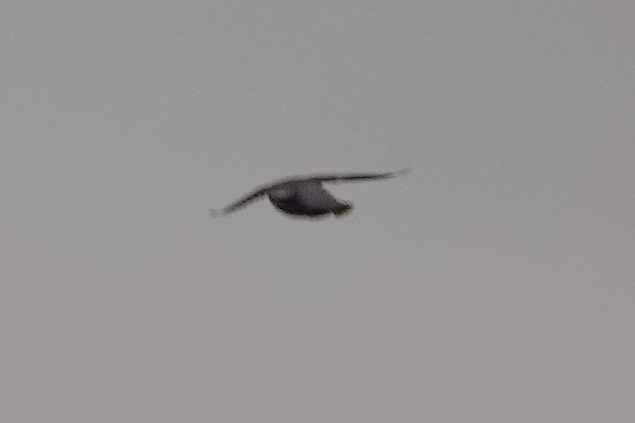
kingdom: Animalia
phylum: Chordata
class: Aves
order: Passeriformes
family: Bombycillidae
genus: Bombycilla
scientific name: Bombycilla garrulus
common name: Bohemian waxwing
